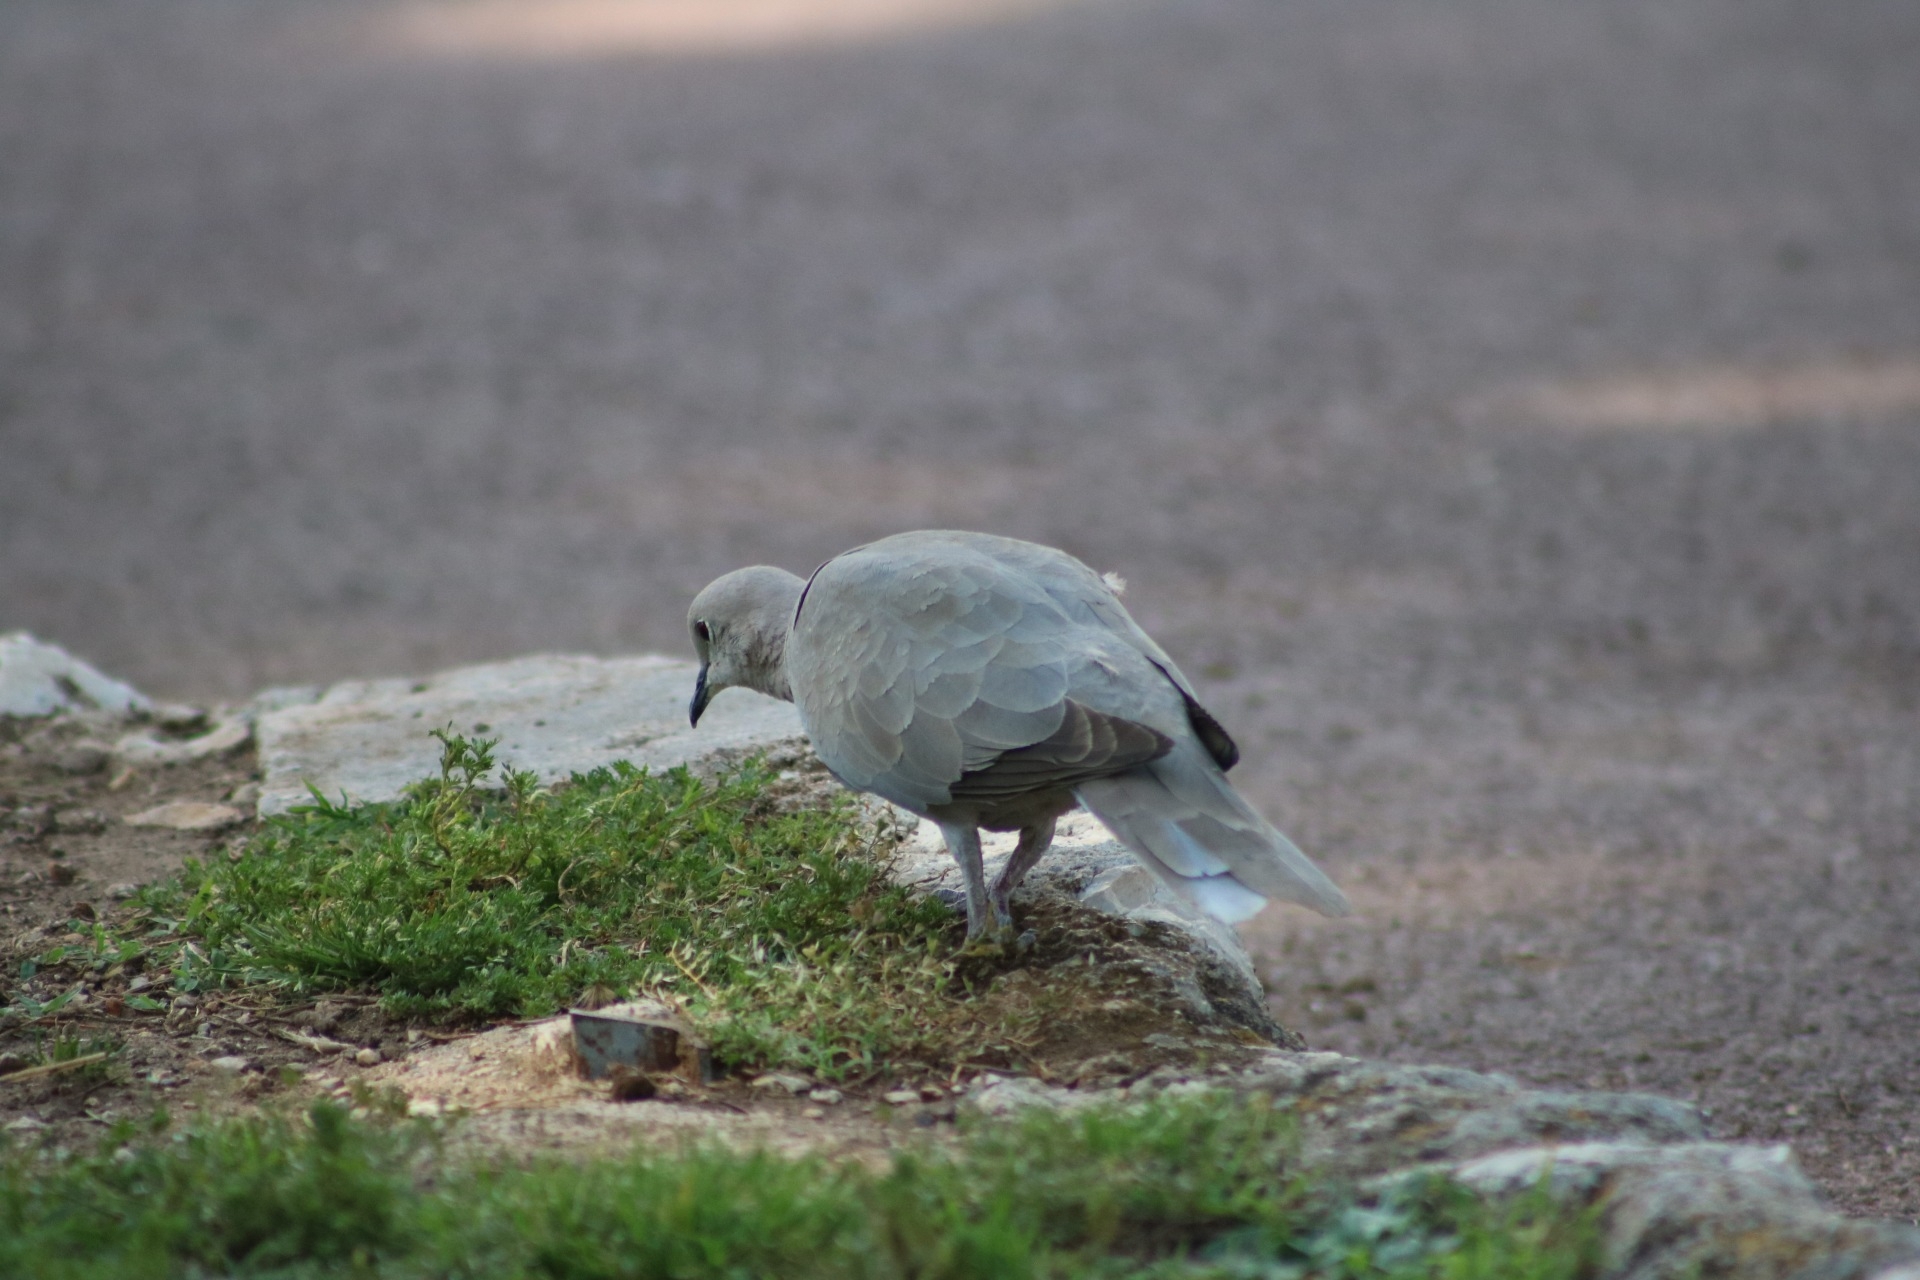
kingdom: Animalia
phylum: Chordata
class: Aves
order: Columbiformes
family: Columbidae
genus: Streptopelia
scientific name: Streptopelia decaocto
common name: Eurasian collared dove
